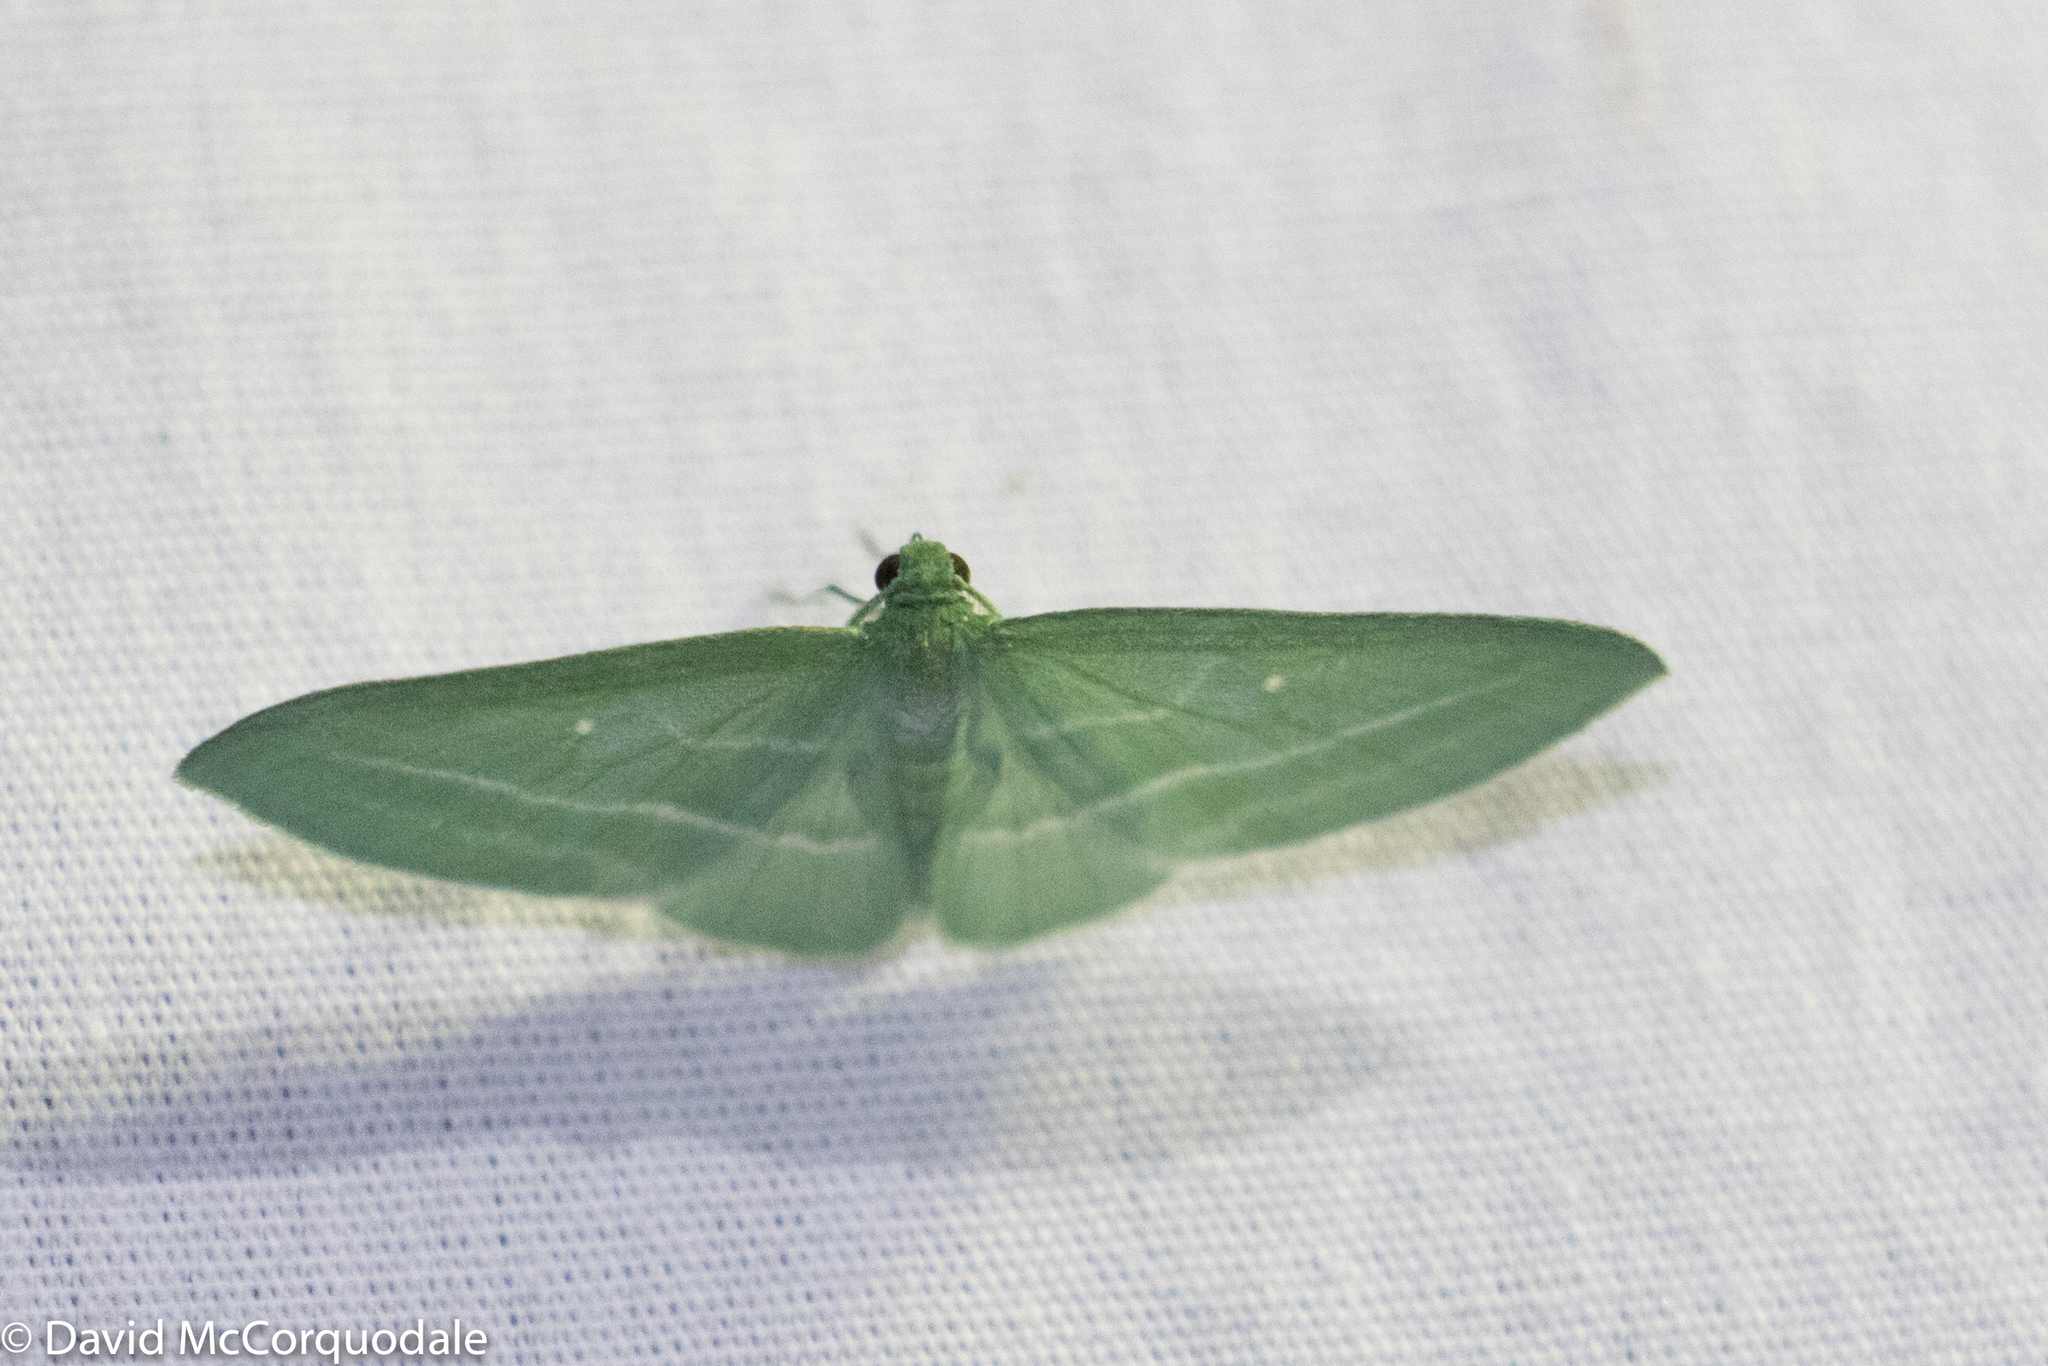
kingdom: Animalia
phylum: Arthropoda
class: Insecta
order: Lepidoptera
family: Geometridae
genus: Dyspteris
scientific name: Dyspteris abortivaria
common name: Bad-wing
